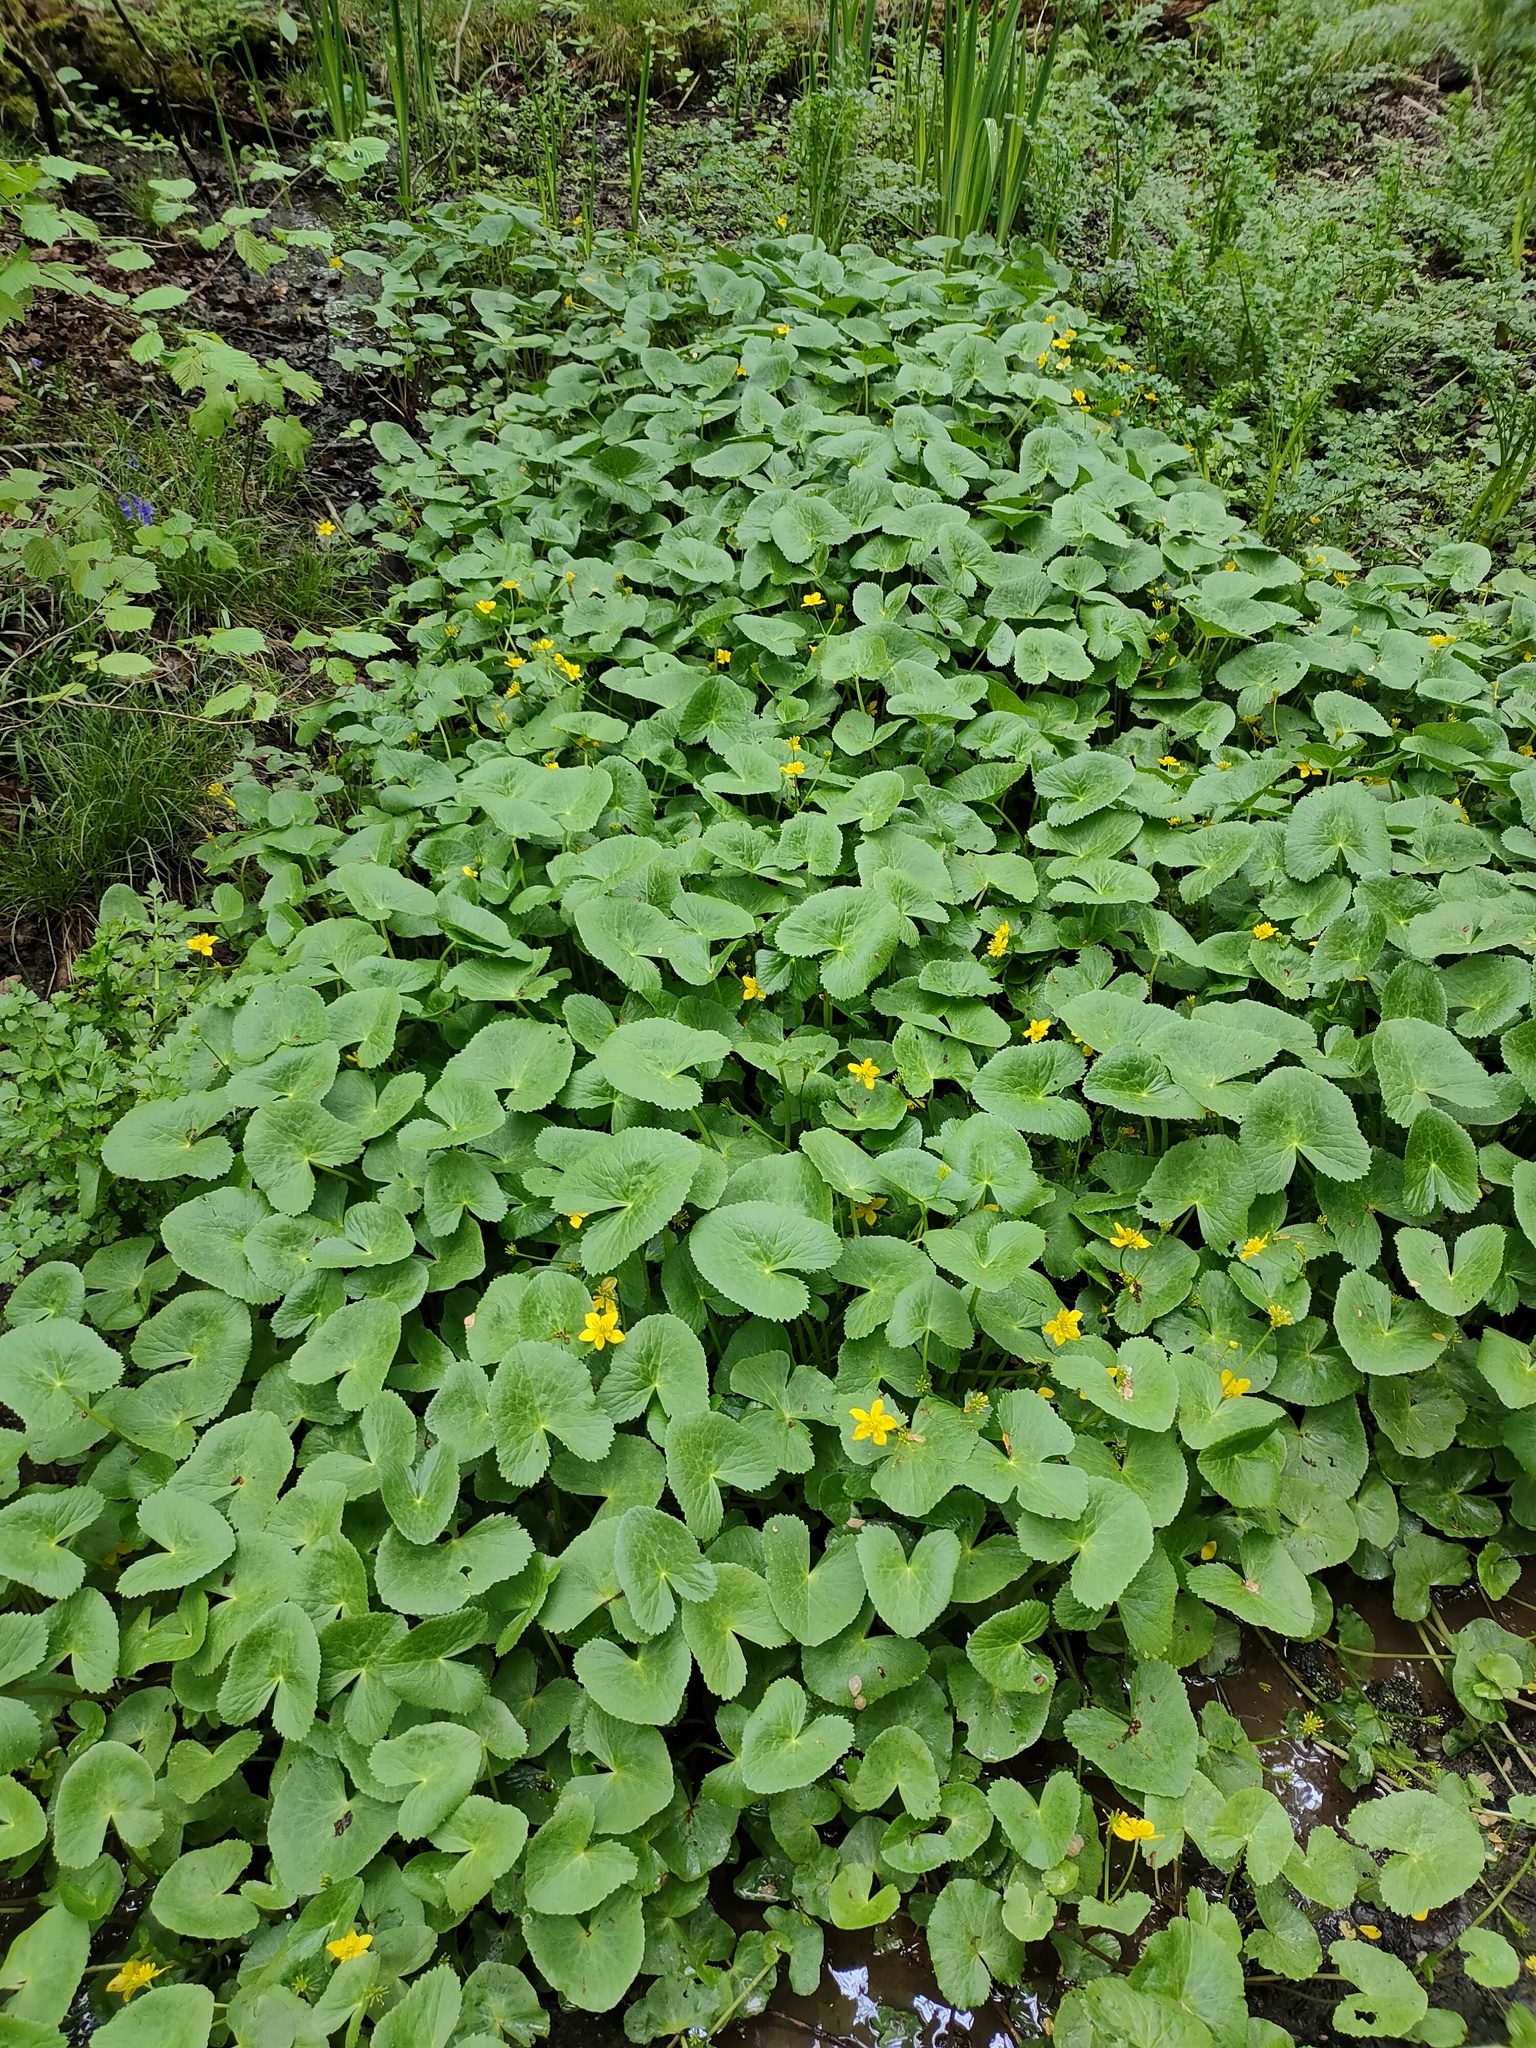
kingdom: Plantae
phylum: Tracheophyta
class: Magnoliopsida
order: Ranunculales
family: Ranunculaceae
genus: Caltha
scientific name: Caltha palustris
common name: Marsh marigold
